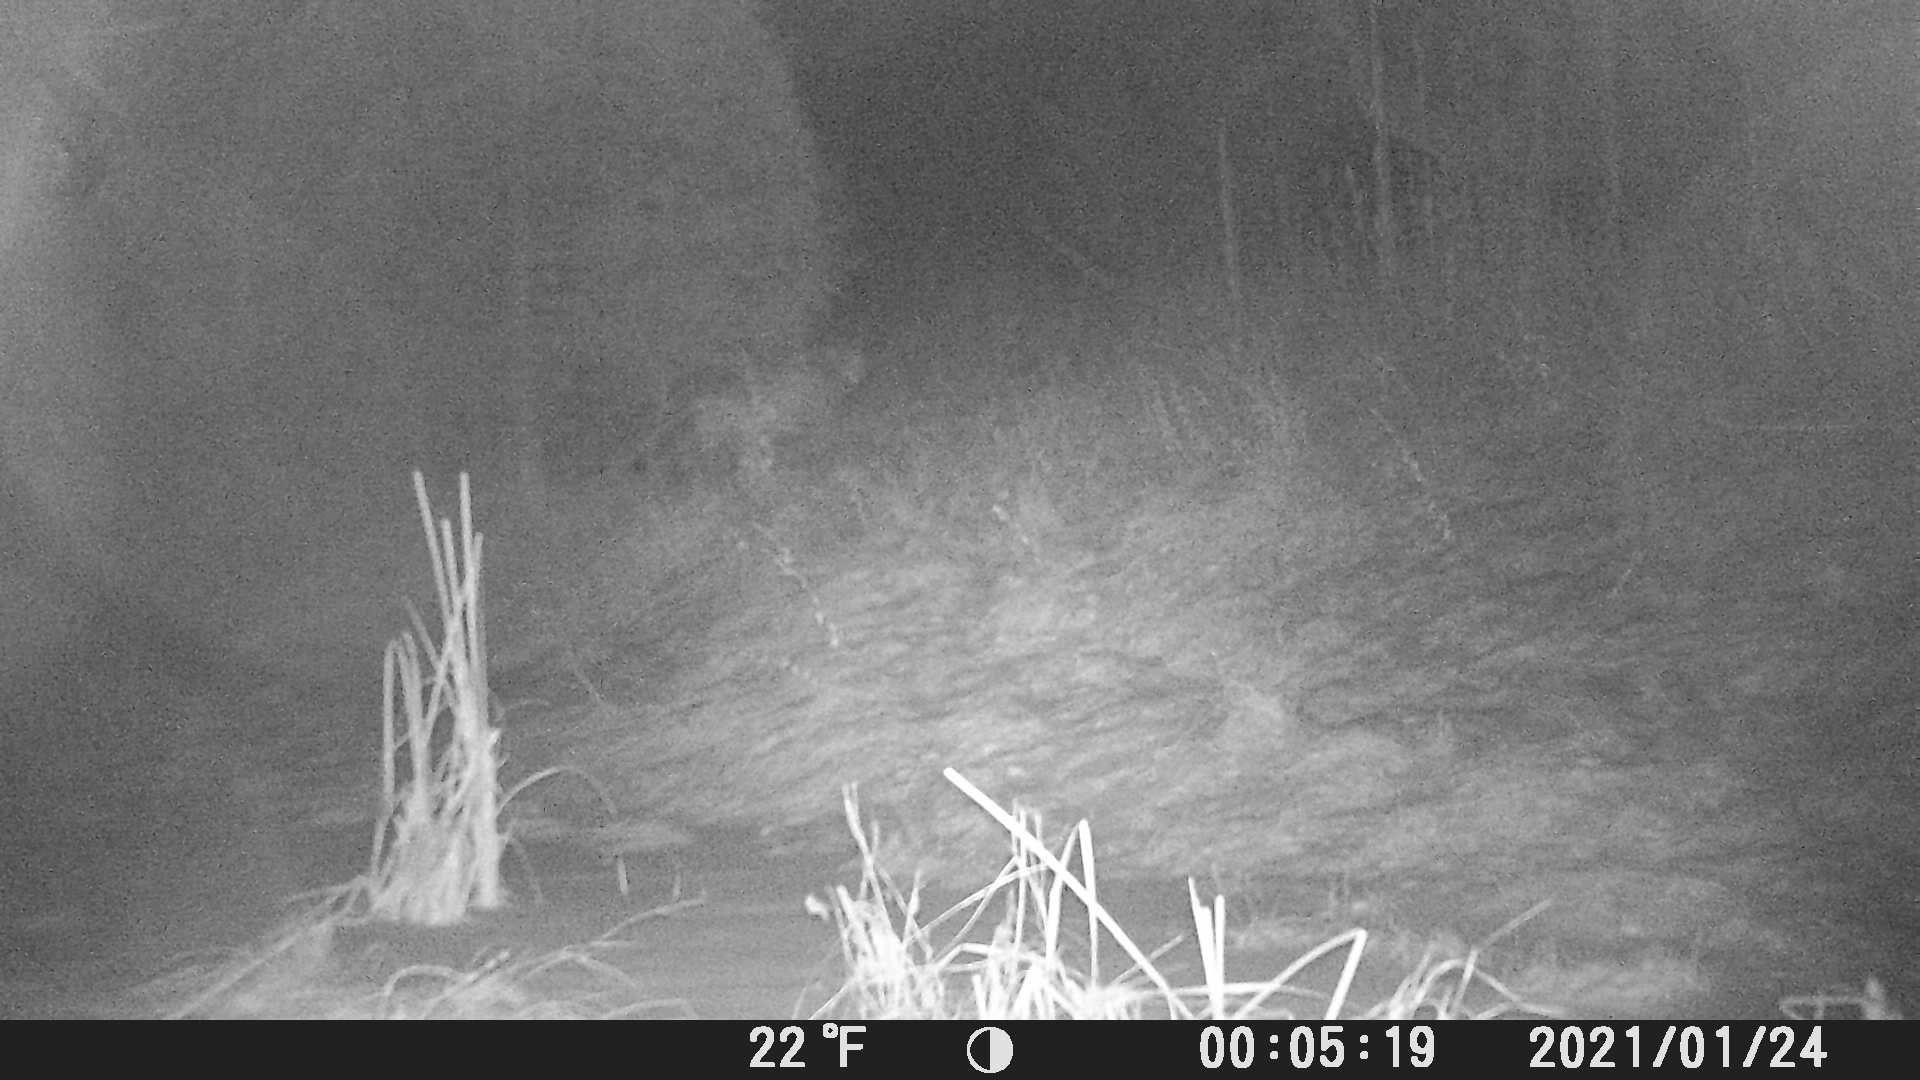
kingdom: Animalia
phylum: Chordata
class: Mammalia
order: Carnivora
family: Felidae
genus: Puma
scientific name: Puma concolor
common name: Puma
